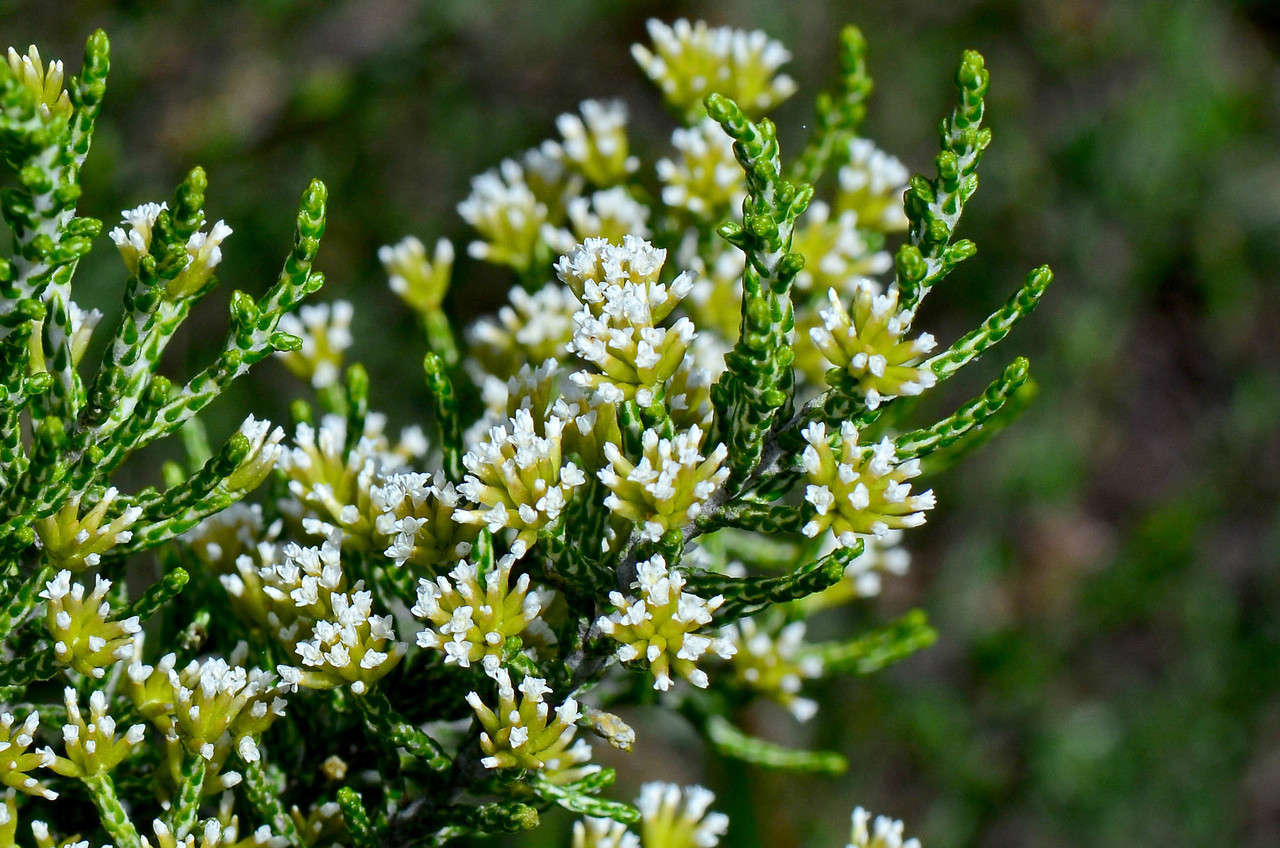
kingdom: Plantae
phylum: Tracheophyta
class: Magnoliopsida
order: Asterales
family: Asteraceae
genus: Ozothamnus
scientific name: Ozothamnus cupressoides
